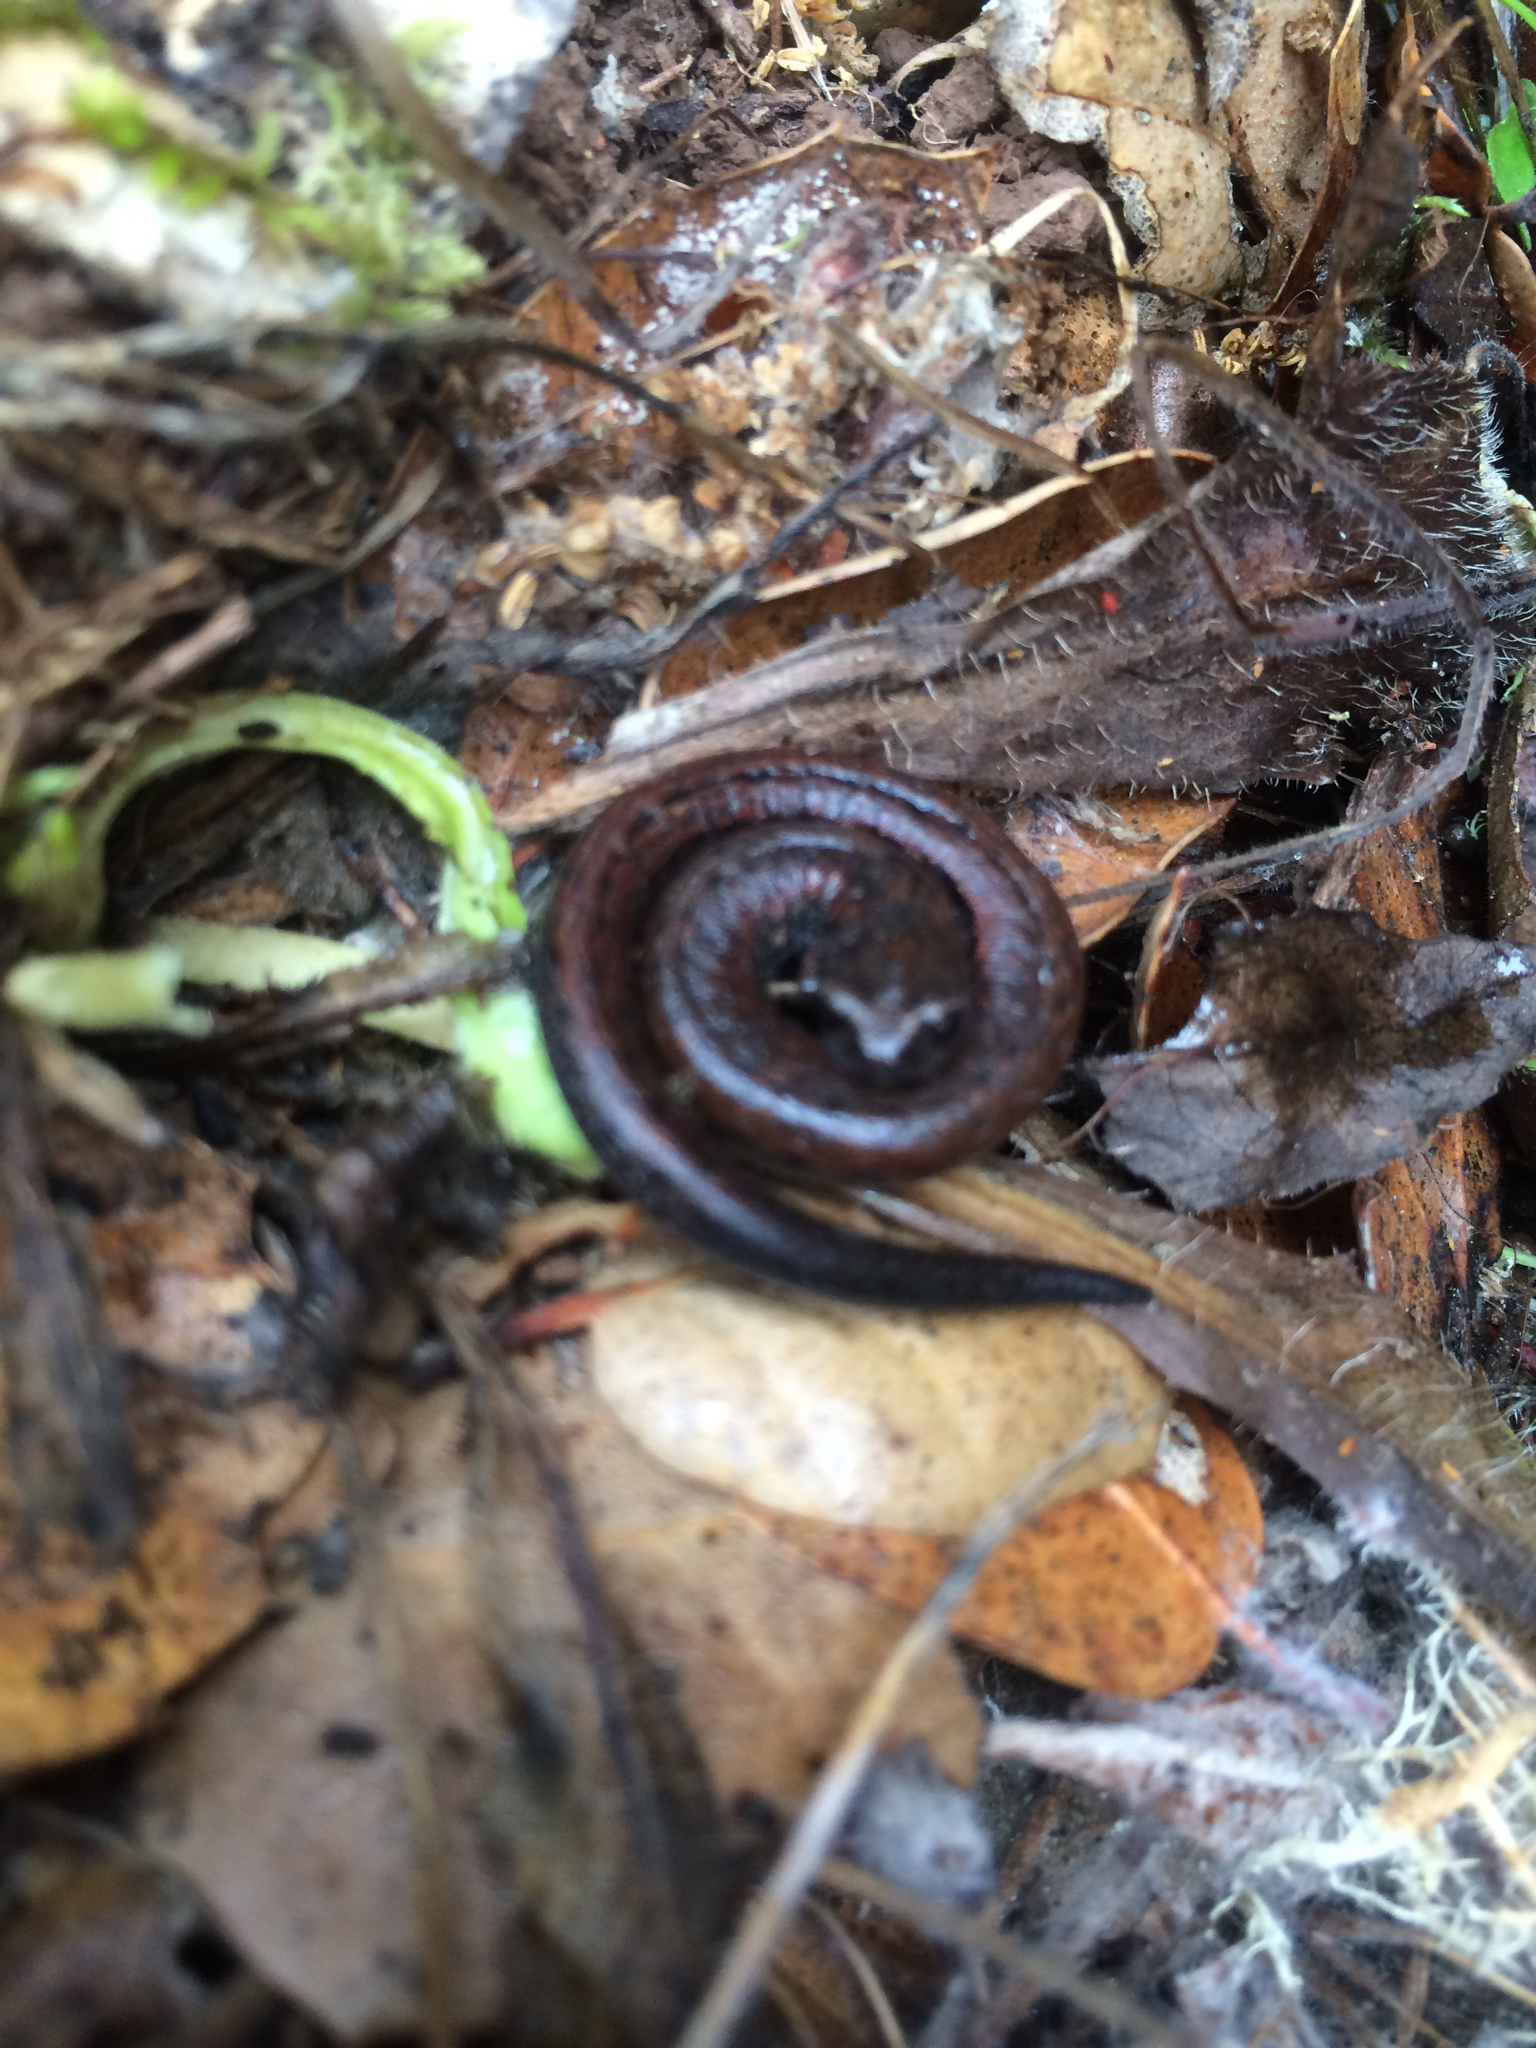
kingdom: Animalia
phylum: Chordata
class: Amphibia
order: Caudata
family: Plethodontidae
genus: Batrachoseps
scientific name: Batrachoseps attenuatus
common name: California slender salamander
